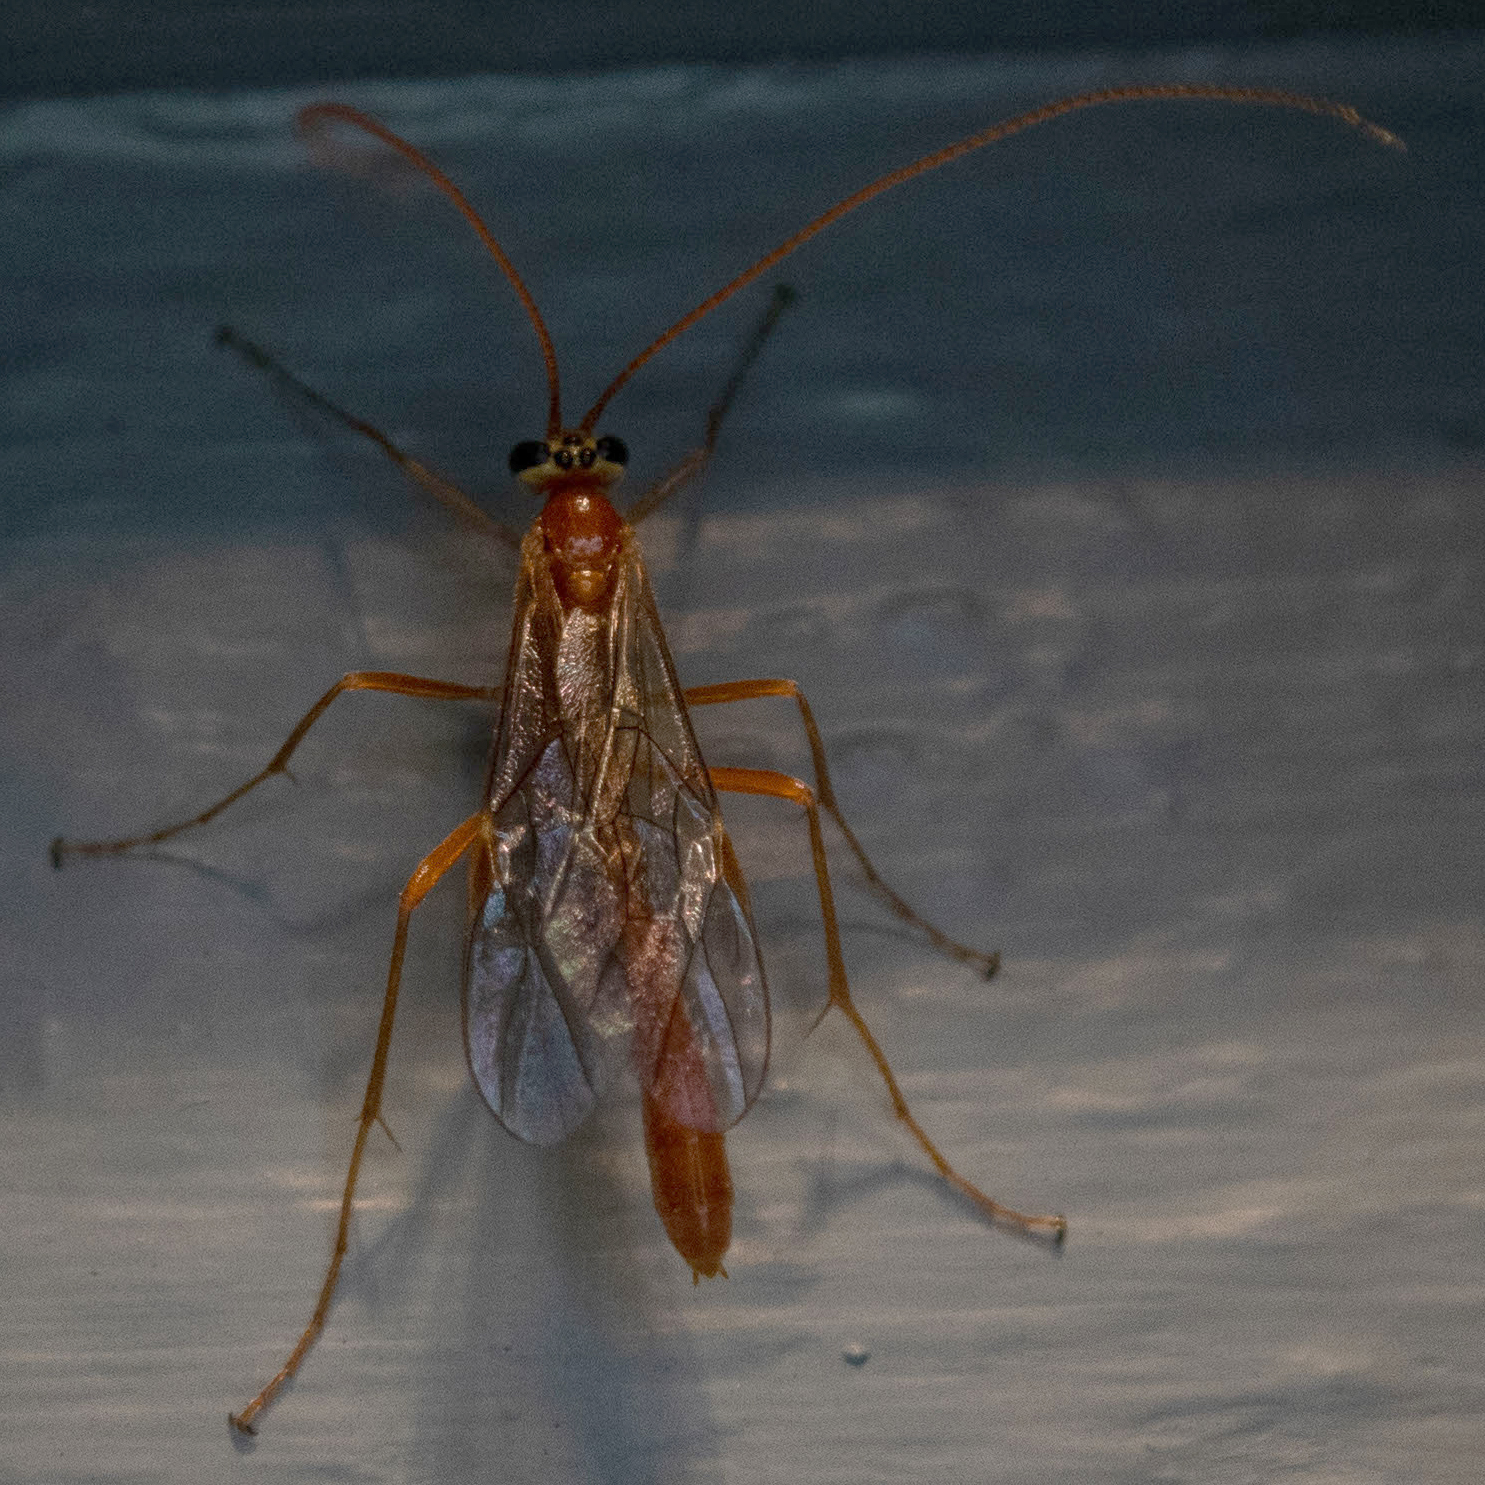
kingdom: Animalia
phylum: Arthropoda
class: Insecta
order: Hymenoptera
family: Ichneumonidae
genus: Ophion
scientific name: Ophion
